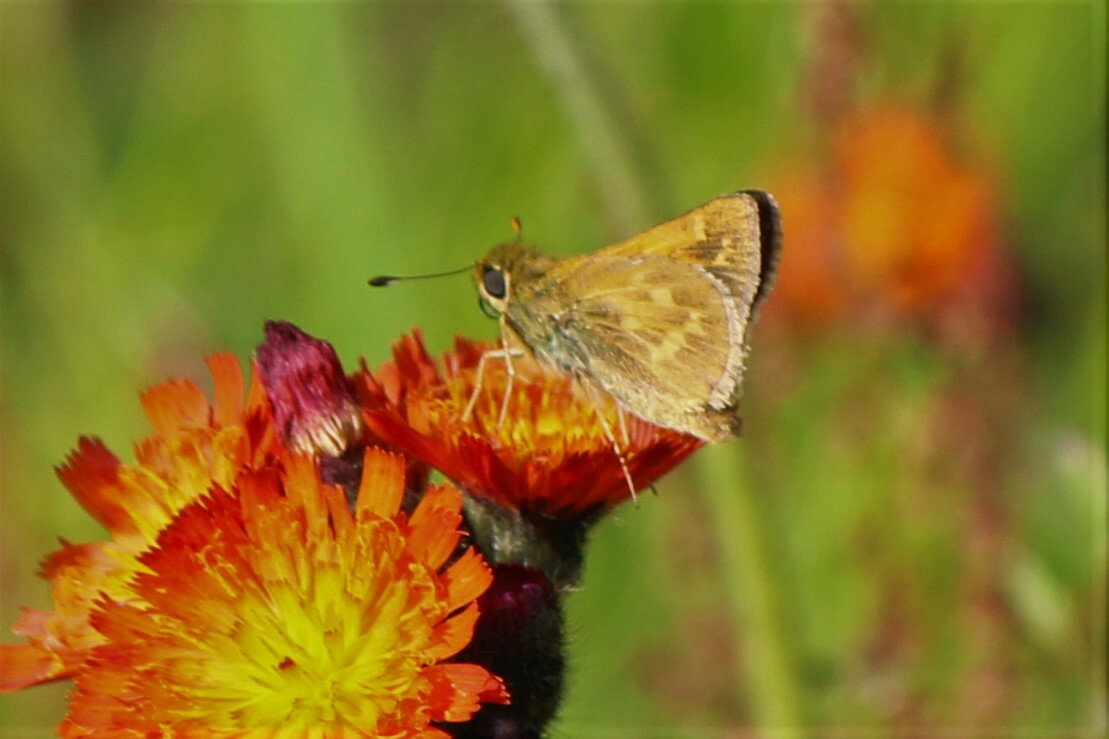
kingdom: Animalia
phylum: Arthropoda
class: Insecta
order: Lepidoptera
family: Hesperiidae
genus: Hesperia
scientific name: Hesperia sassacus
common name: Indian skipper
